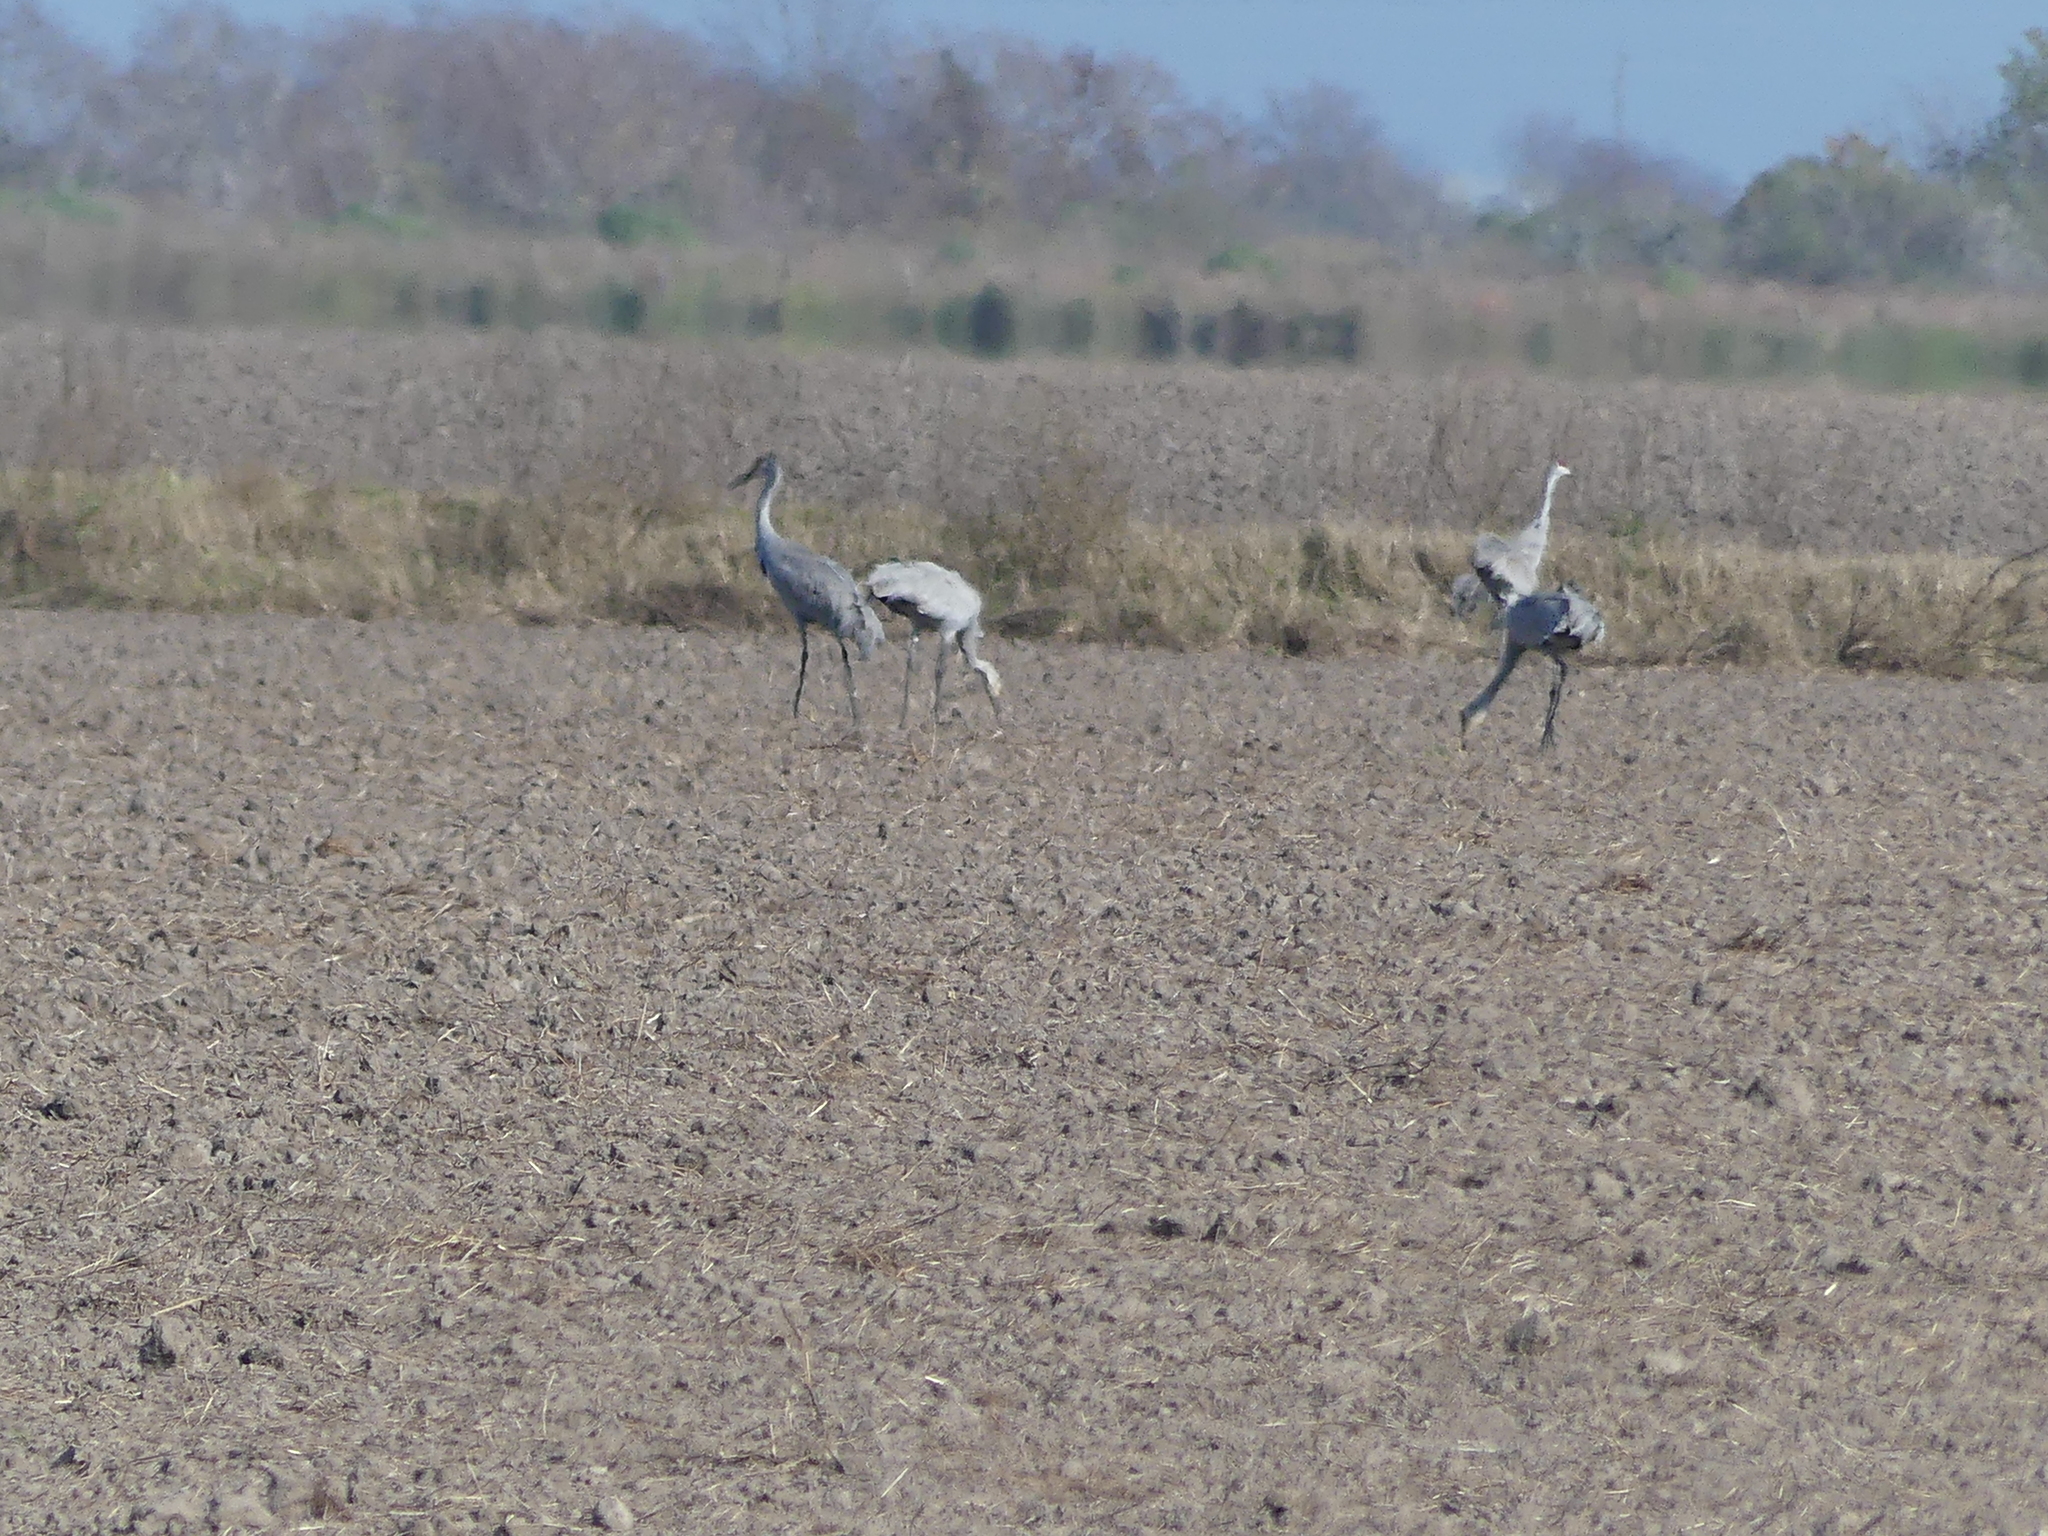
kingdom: Animalia
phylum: Chordata
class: Aves
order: Gruiformes
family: Gruidae
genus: Grus
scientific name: Grus canadensis
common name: Sandhill crane
